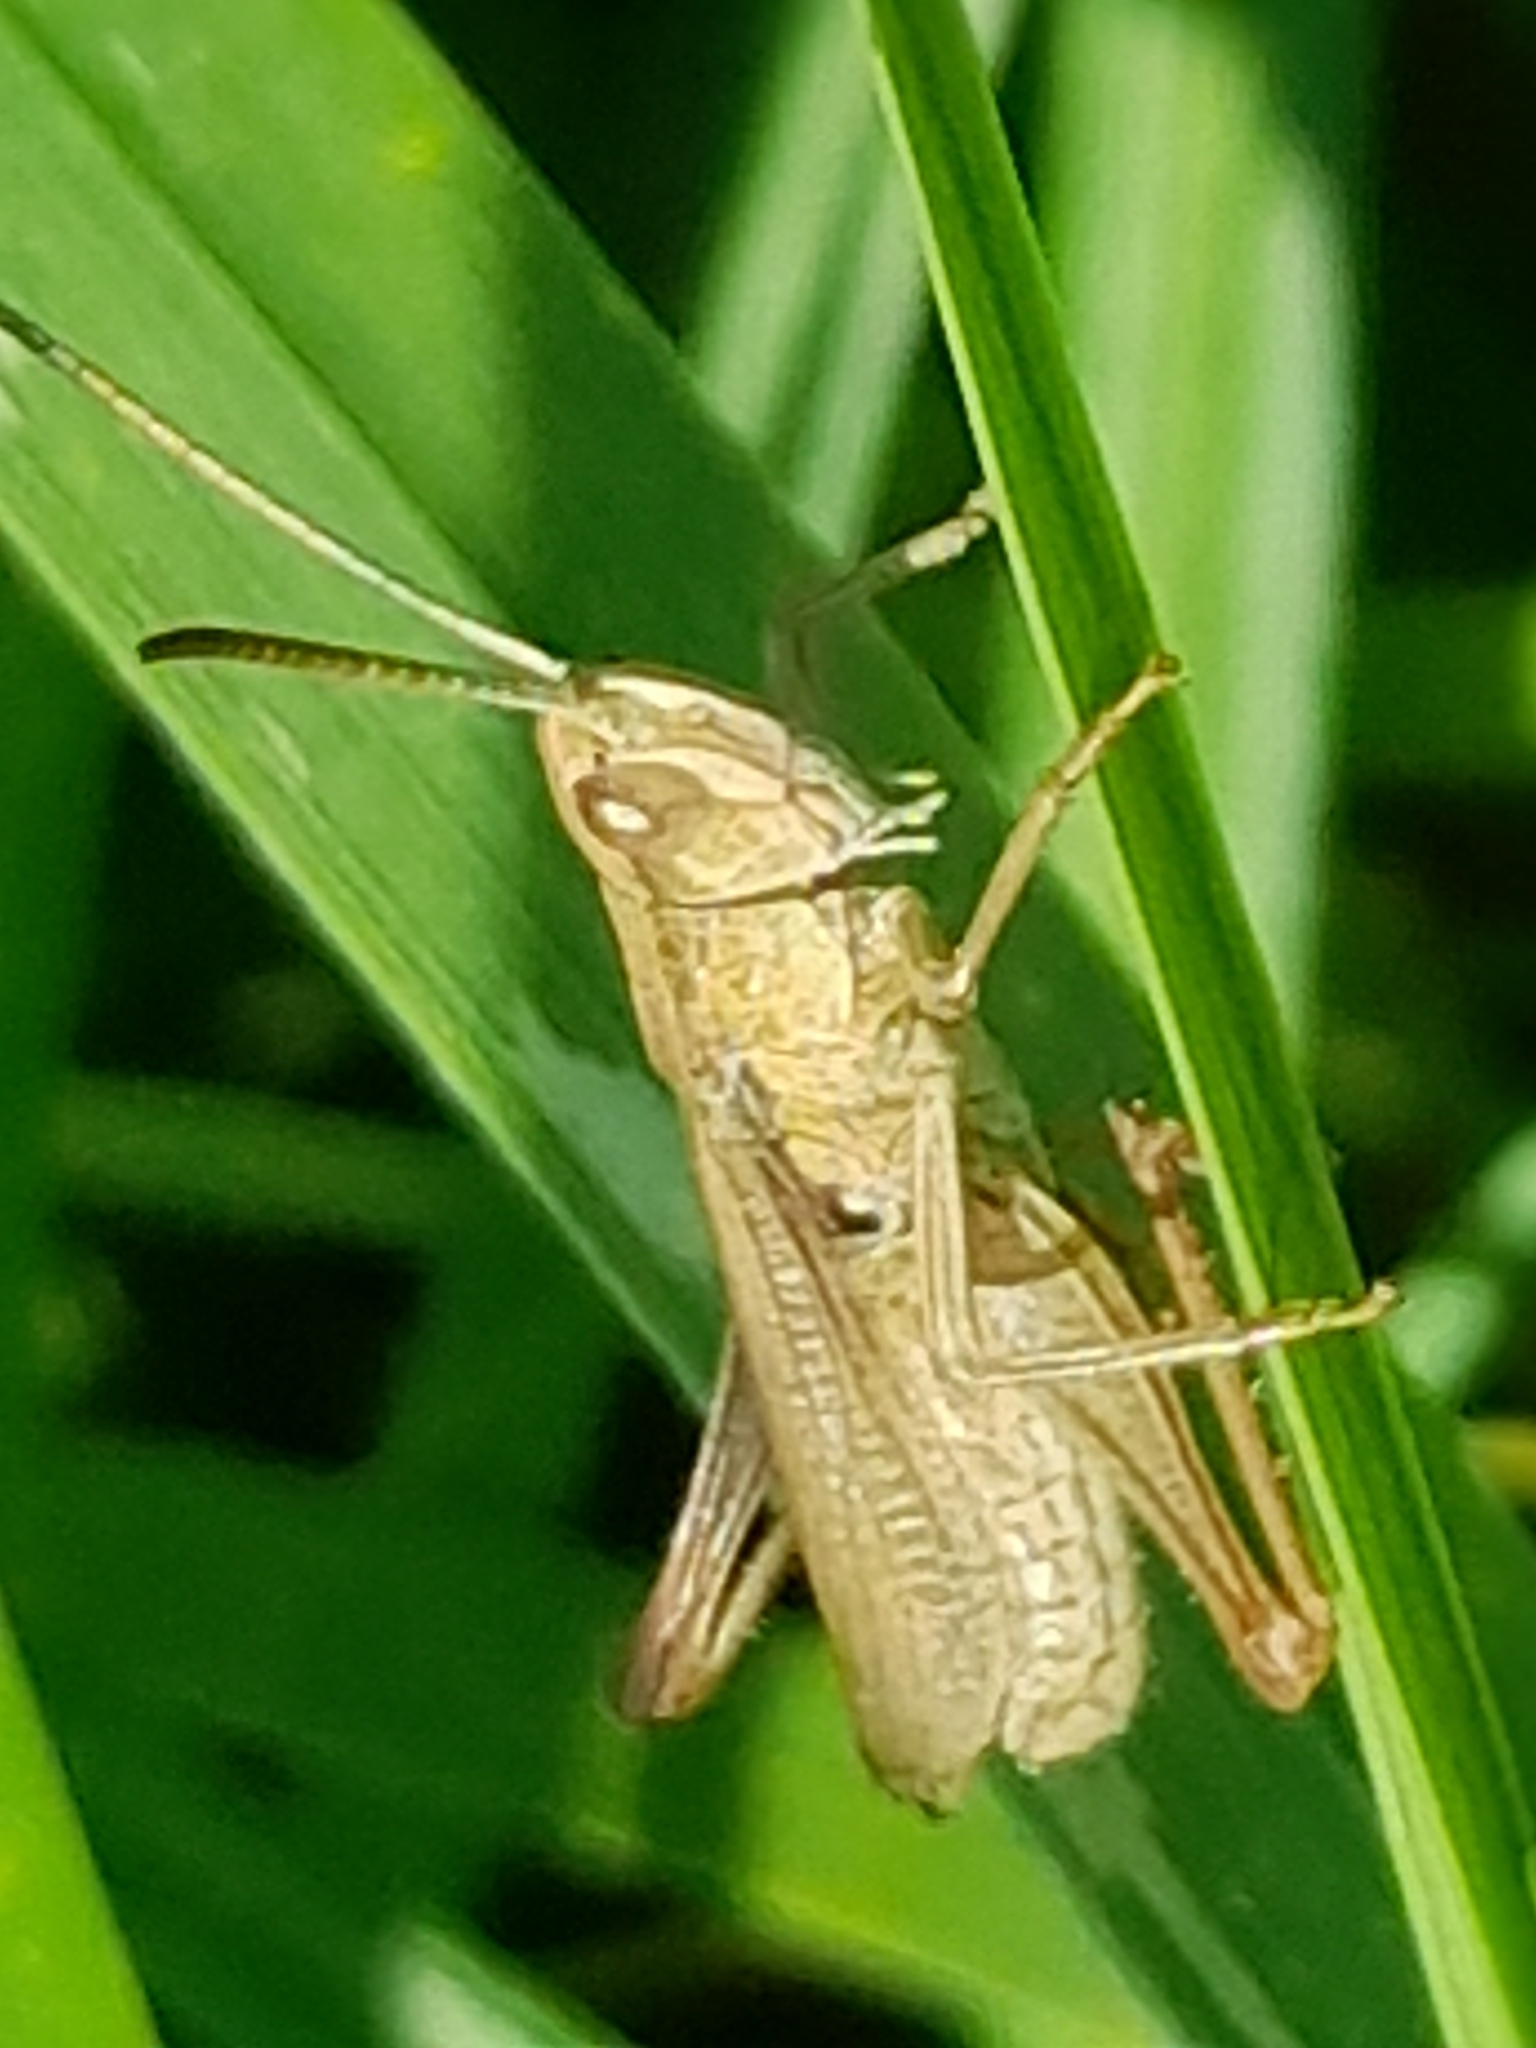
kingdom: Animalia
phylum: Arthropoda
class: Insecta
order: Orthoptera
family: Acrididae
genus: Chorthippus
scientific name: Chorthippus albomarginatus
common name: Lesser marsh grasshopper
